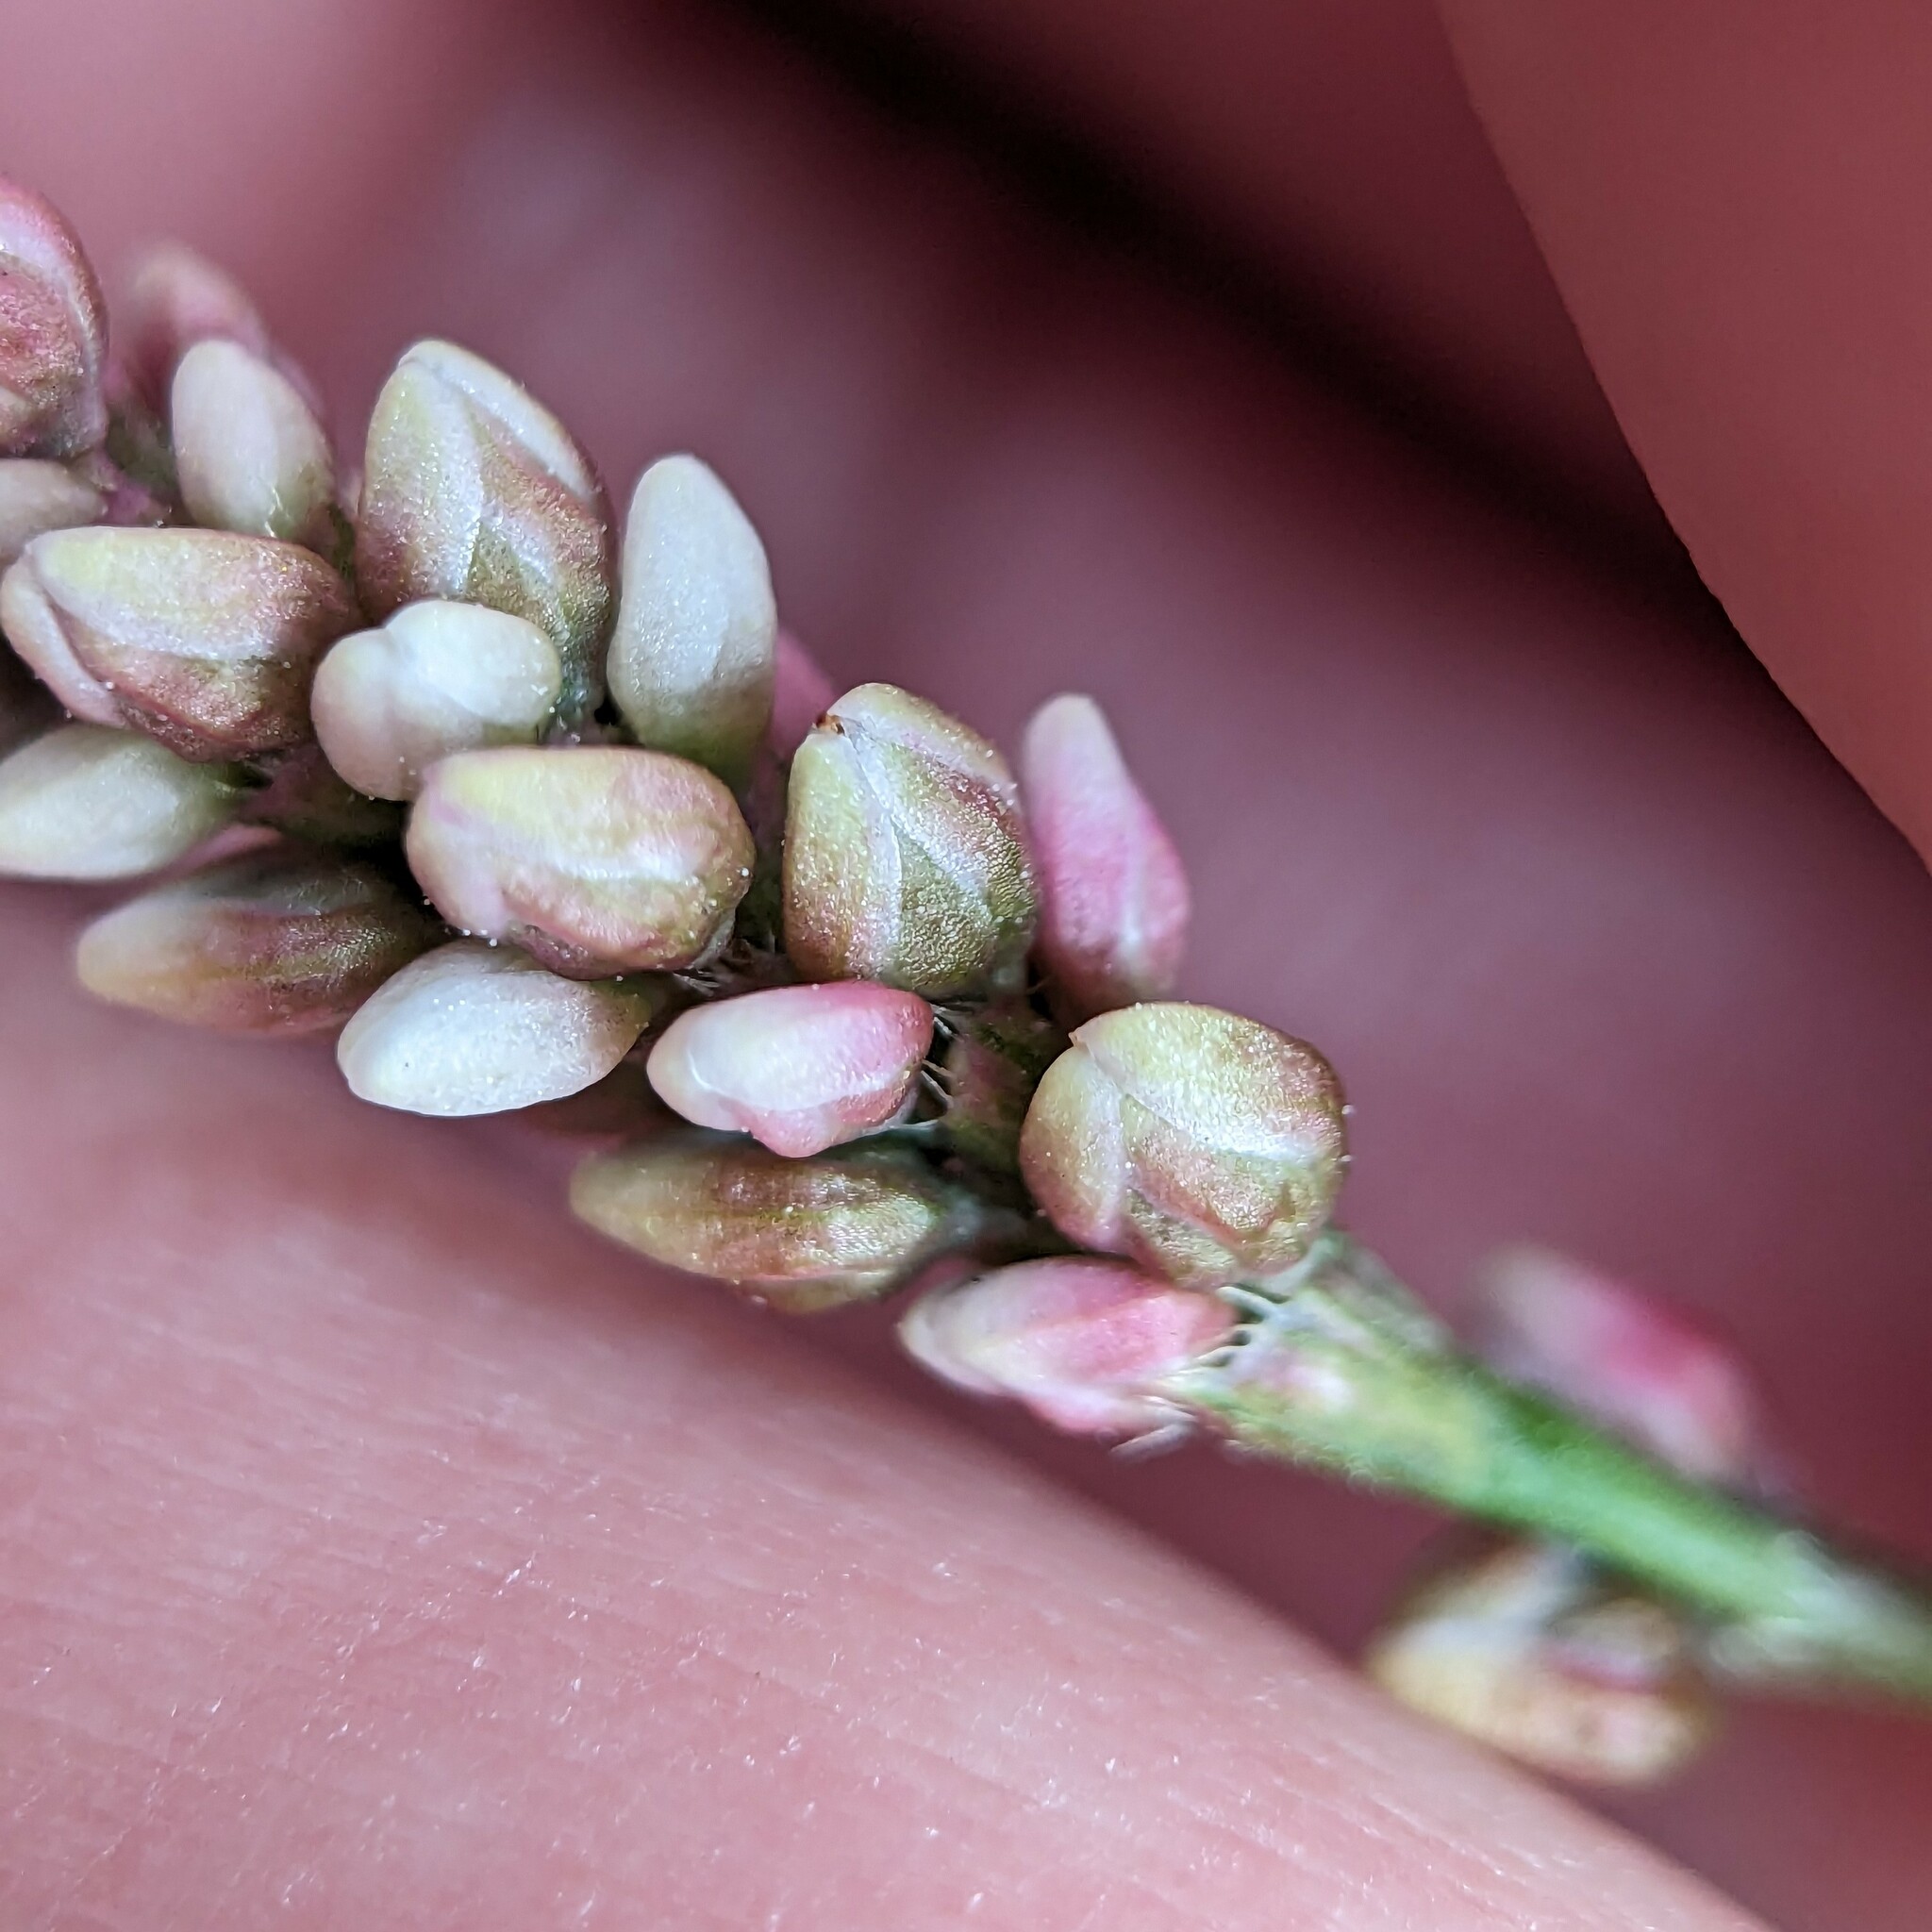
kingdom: Plantae
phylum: Tracheophyta
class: Magnoliopsida
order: Caryophyllales
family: Polygonaceae
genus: Persicaria
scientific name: Persicaria maculosa
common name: Redshank
